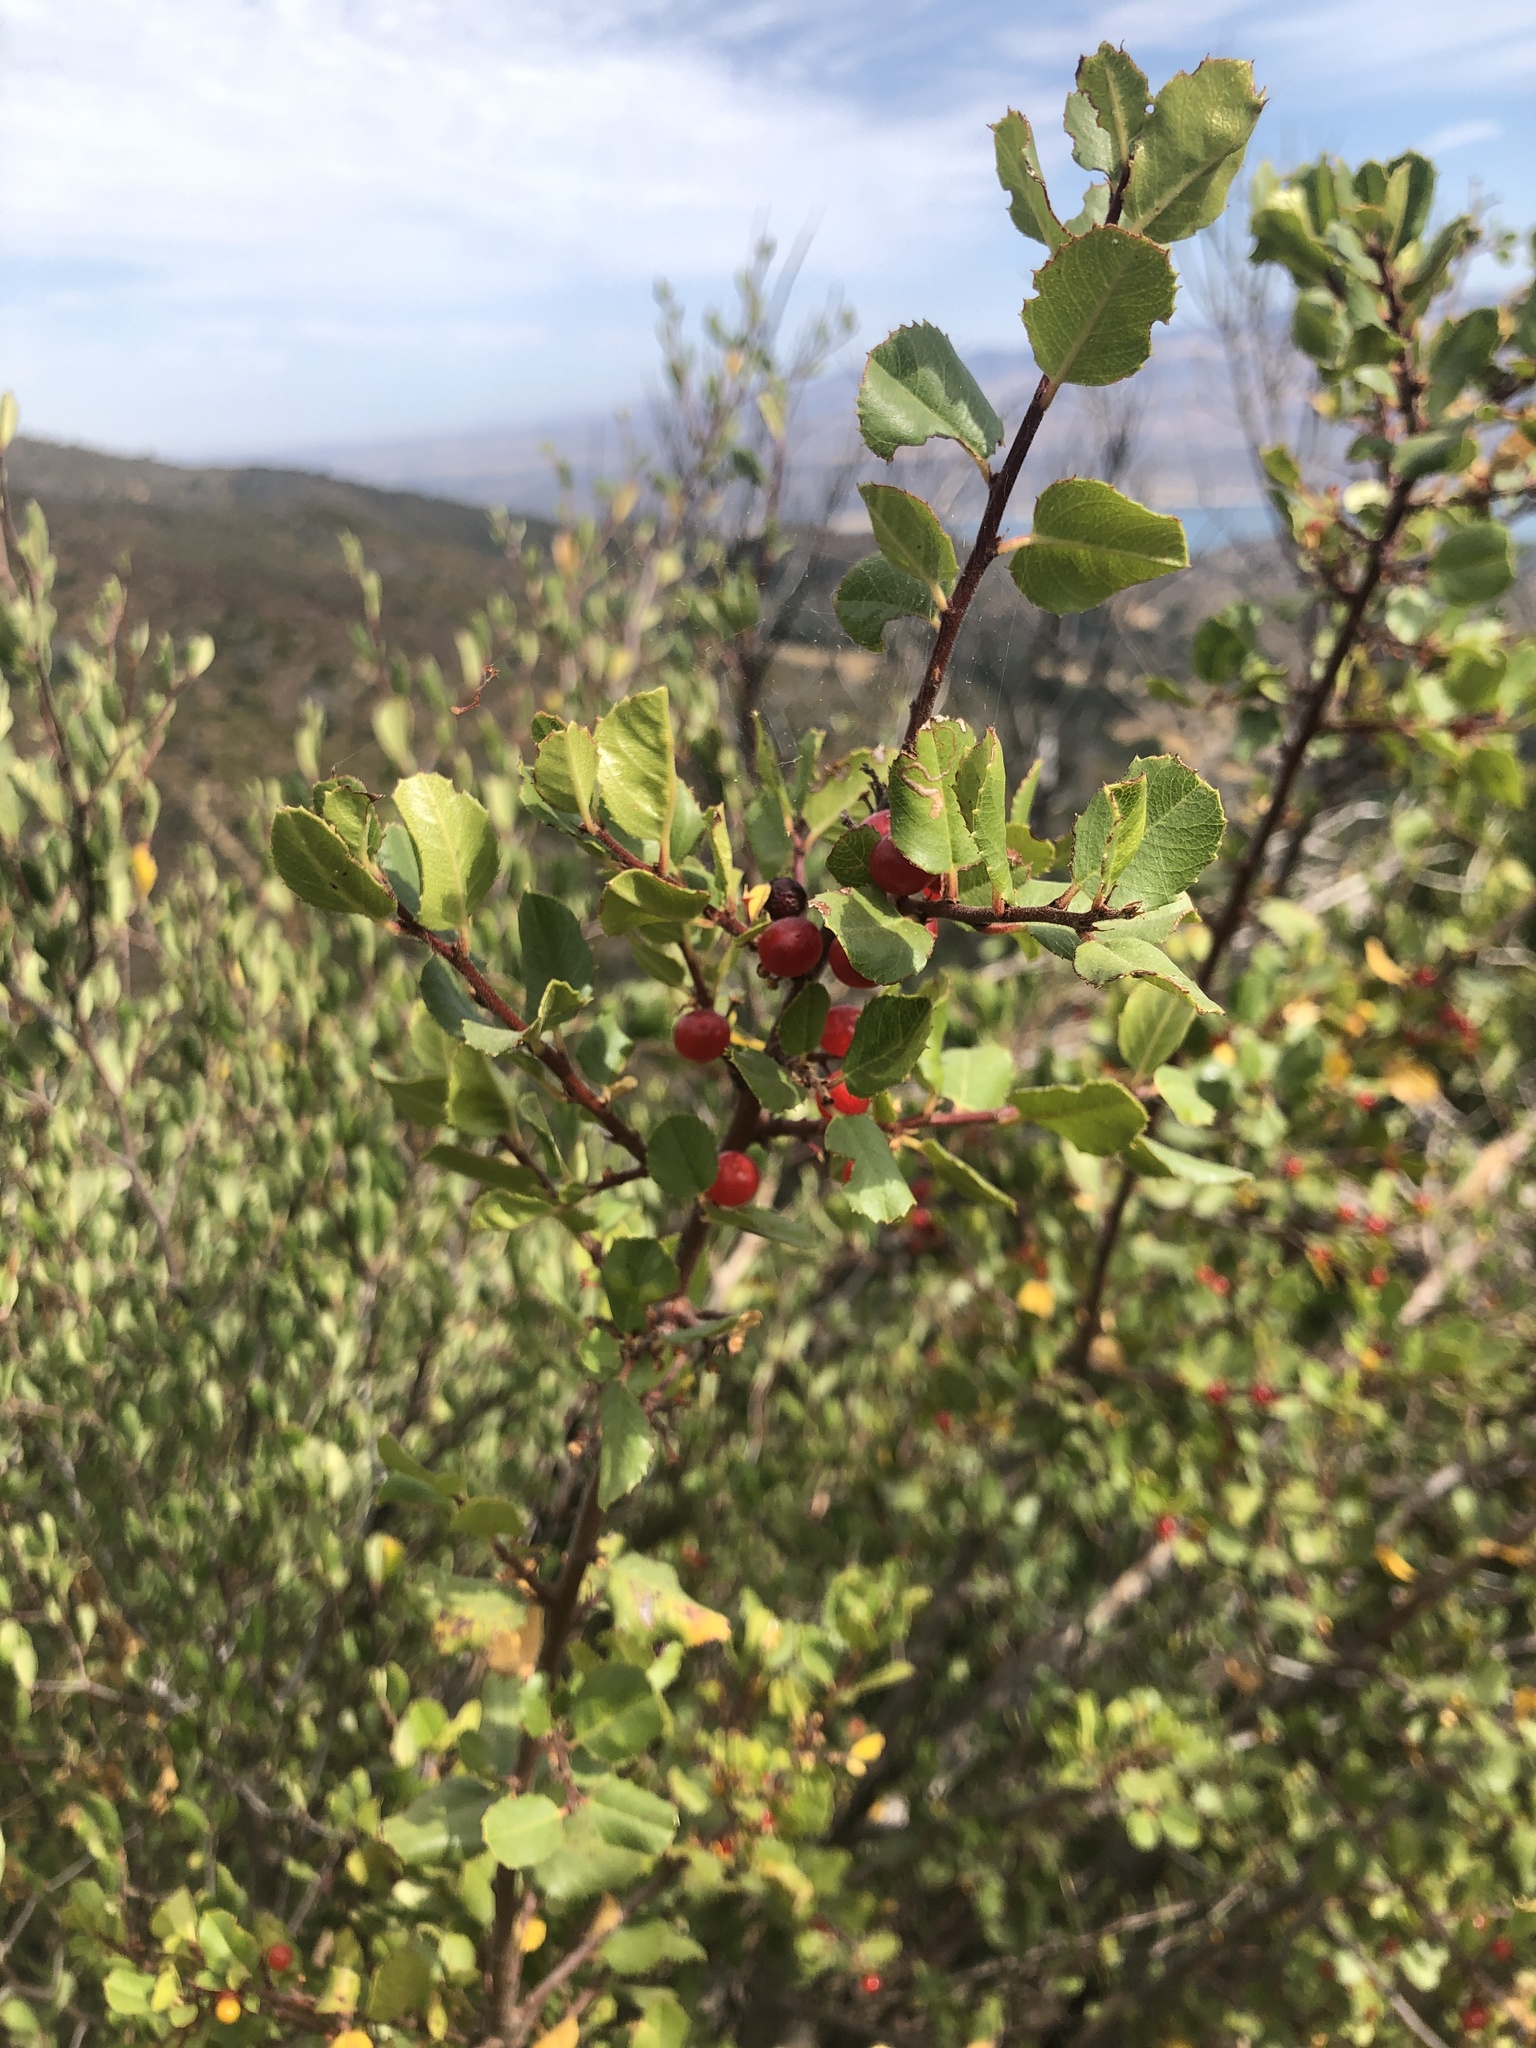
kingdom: Plantae
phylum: Tracheophyta
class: Magnoliopsida
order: Rosales
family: Rhamnaceae
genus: Endotropis
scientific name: Endotropis crocea
